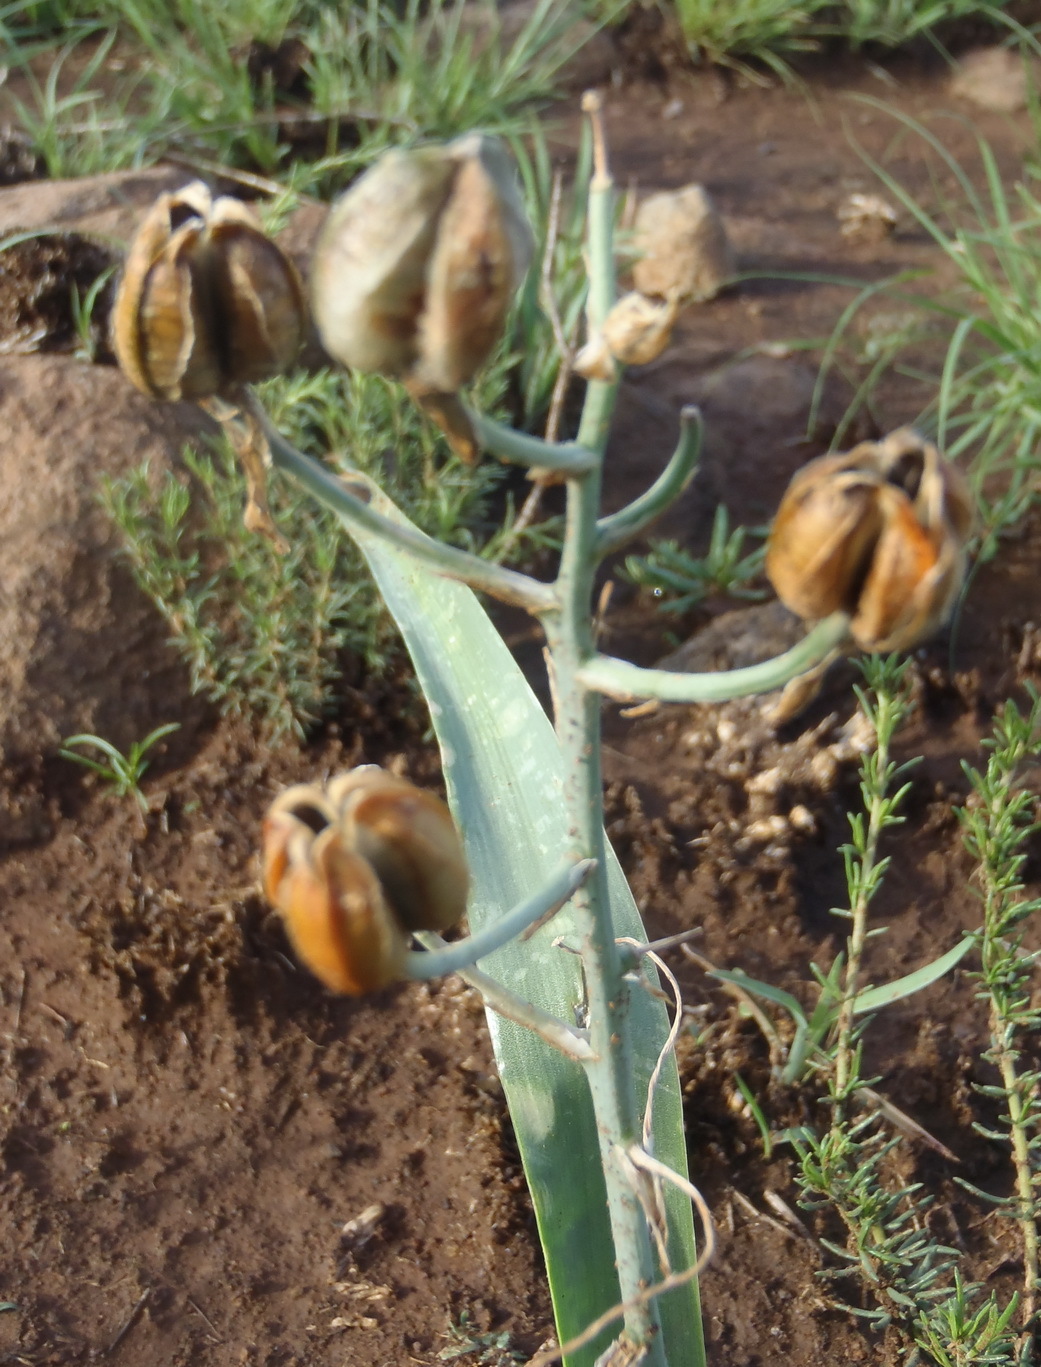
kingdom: Plantae
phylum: Tracheophyta
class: Liliopsida
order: Asparagales
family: Asparagaceae
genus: Albuca
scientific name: Albuca setosa
